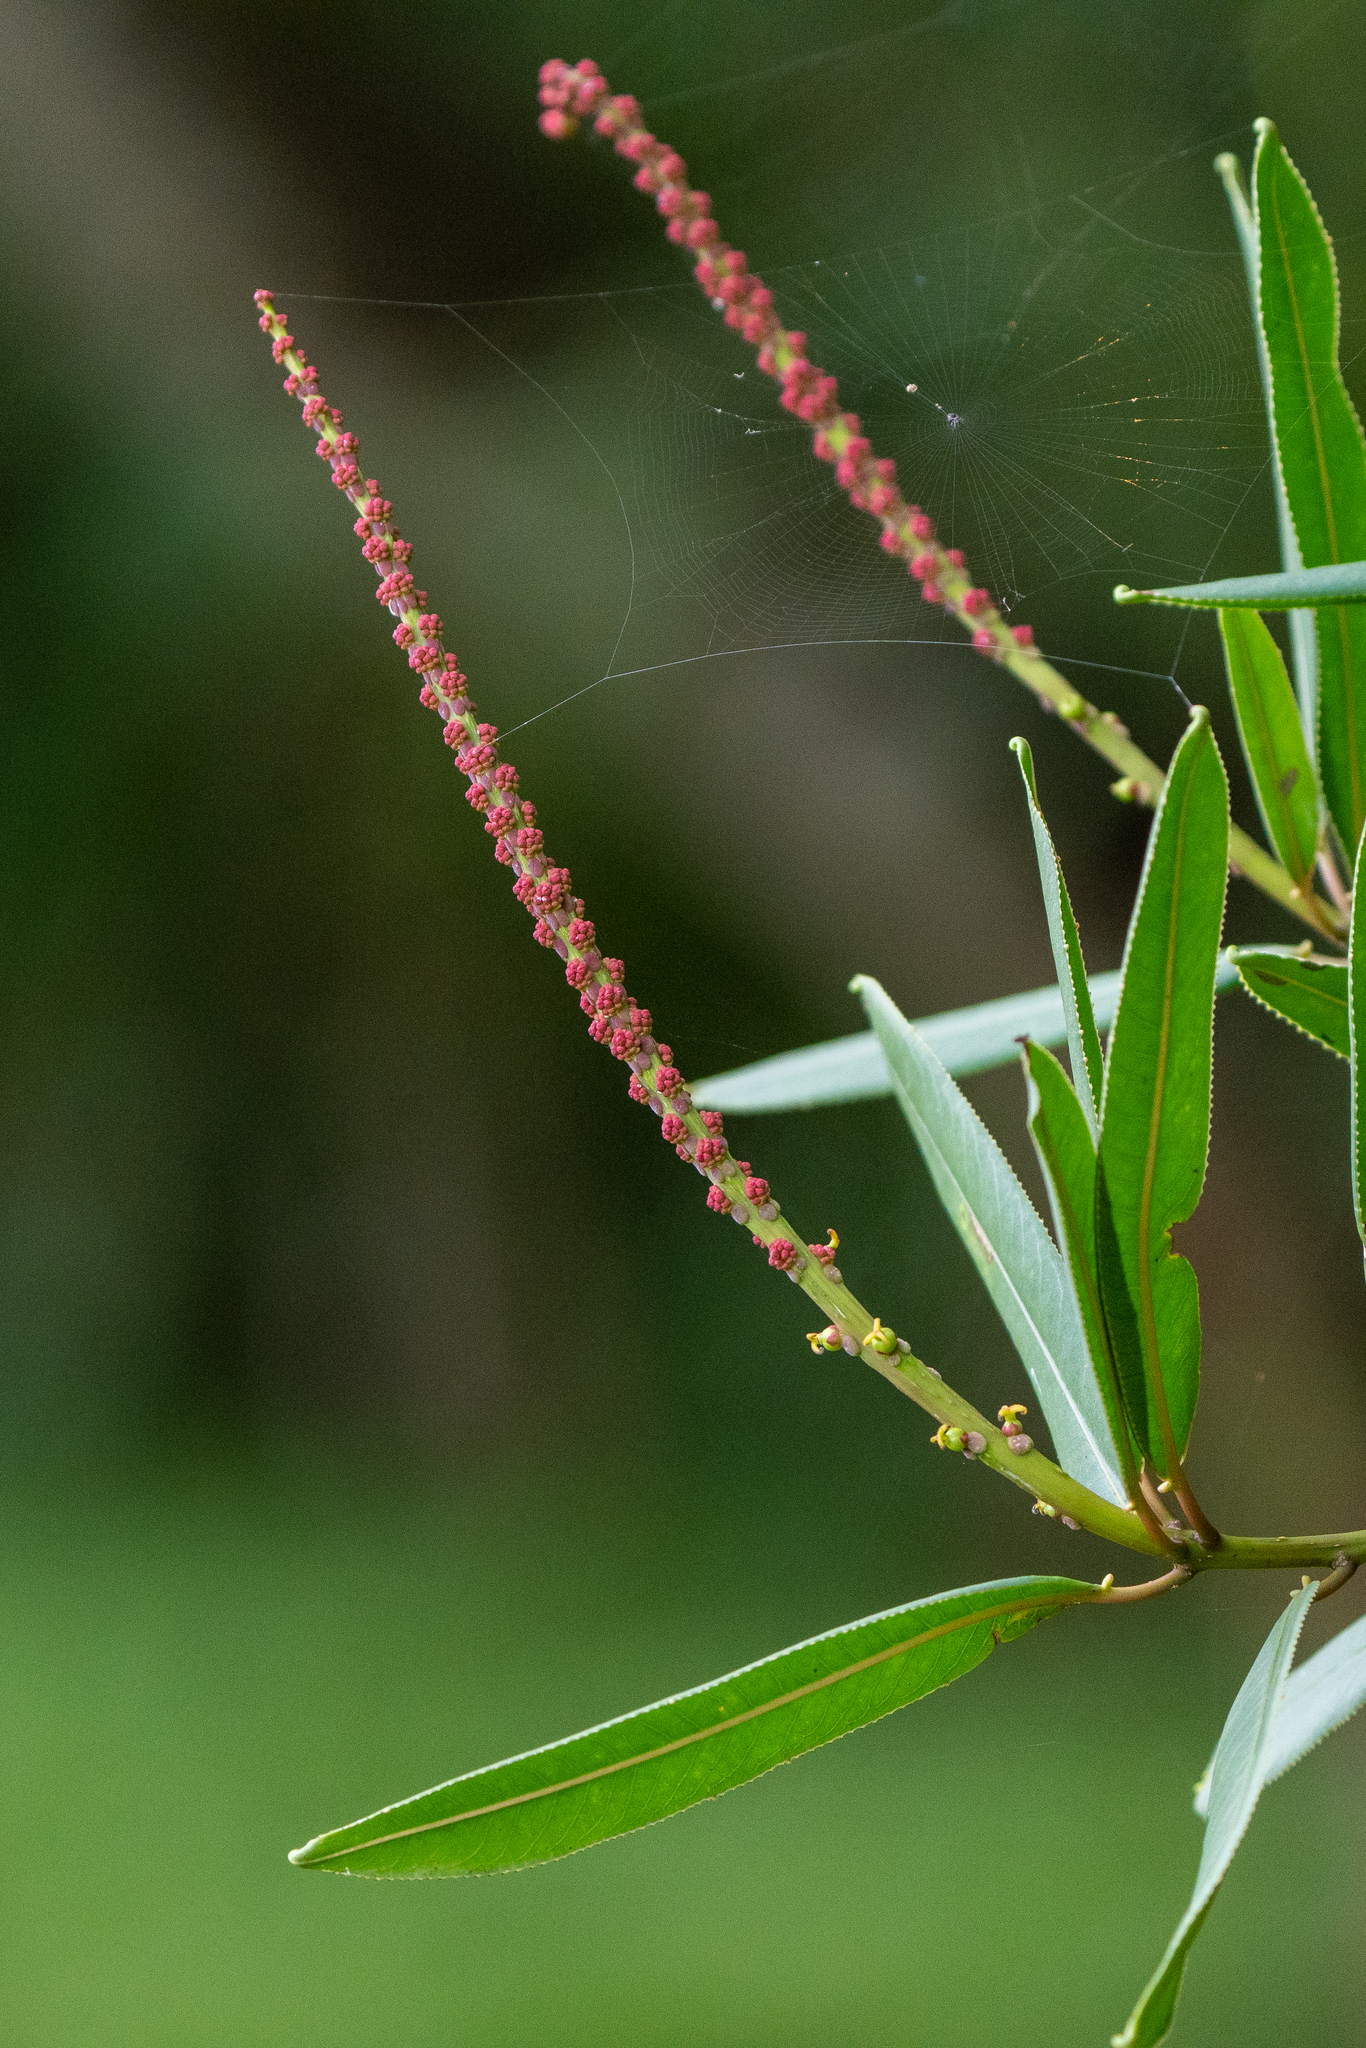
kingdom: Plantae
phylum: Tracheophyta
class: Magnoliopsida
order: Malpighiales
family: Euphorbiaceae
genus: Sapium
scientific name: Sapium glandulosum
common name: Milktree
